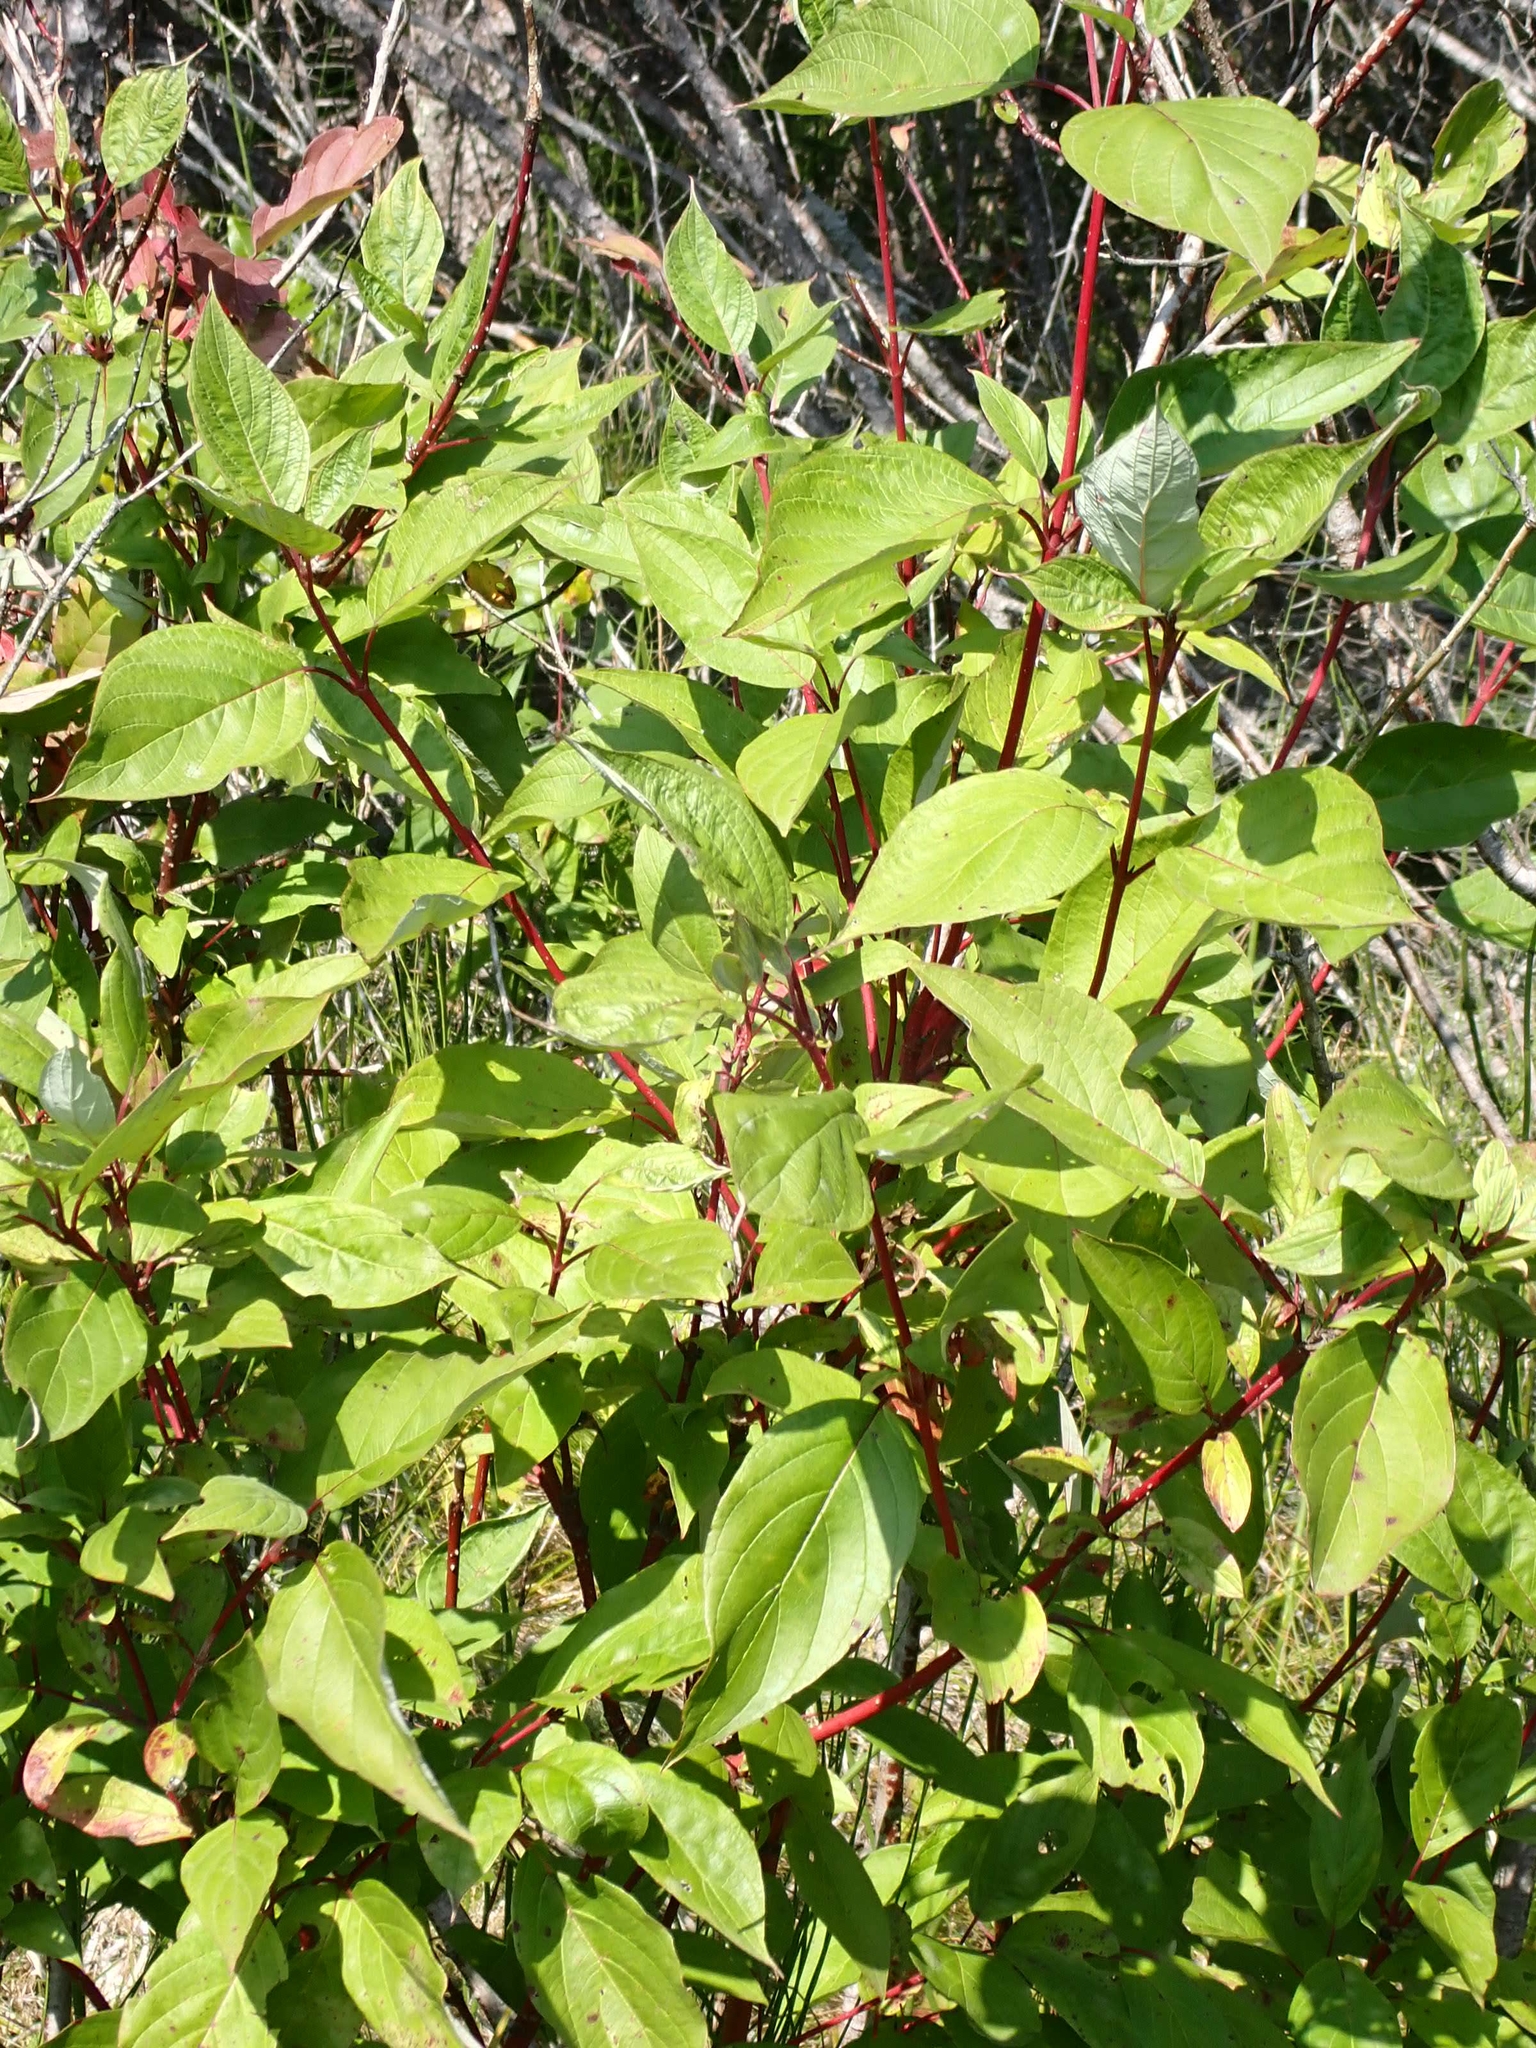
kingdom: Plantae
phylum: Tracheophyta
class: Magnoliopsida
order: Cornales
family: Cornaceae
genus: Cornus
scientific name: Cornus sericea
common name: Red-osier dogwood
